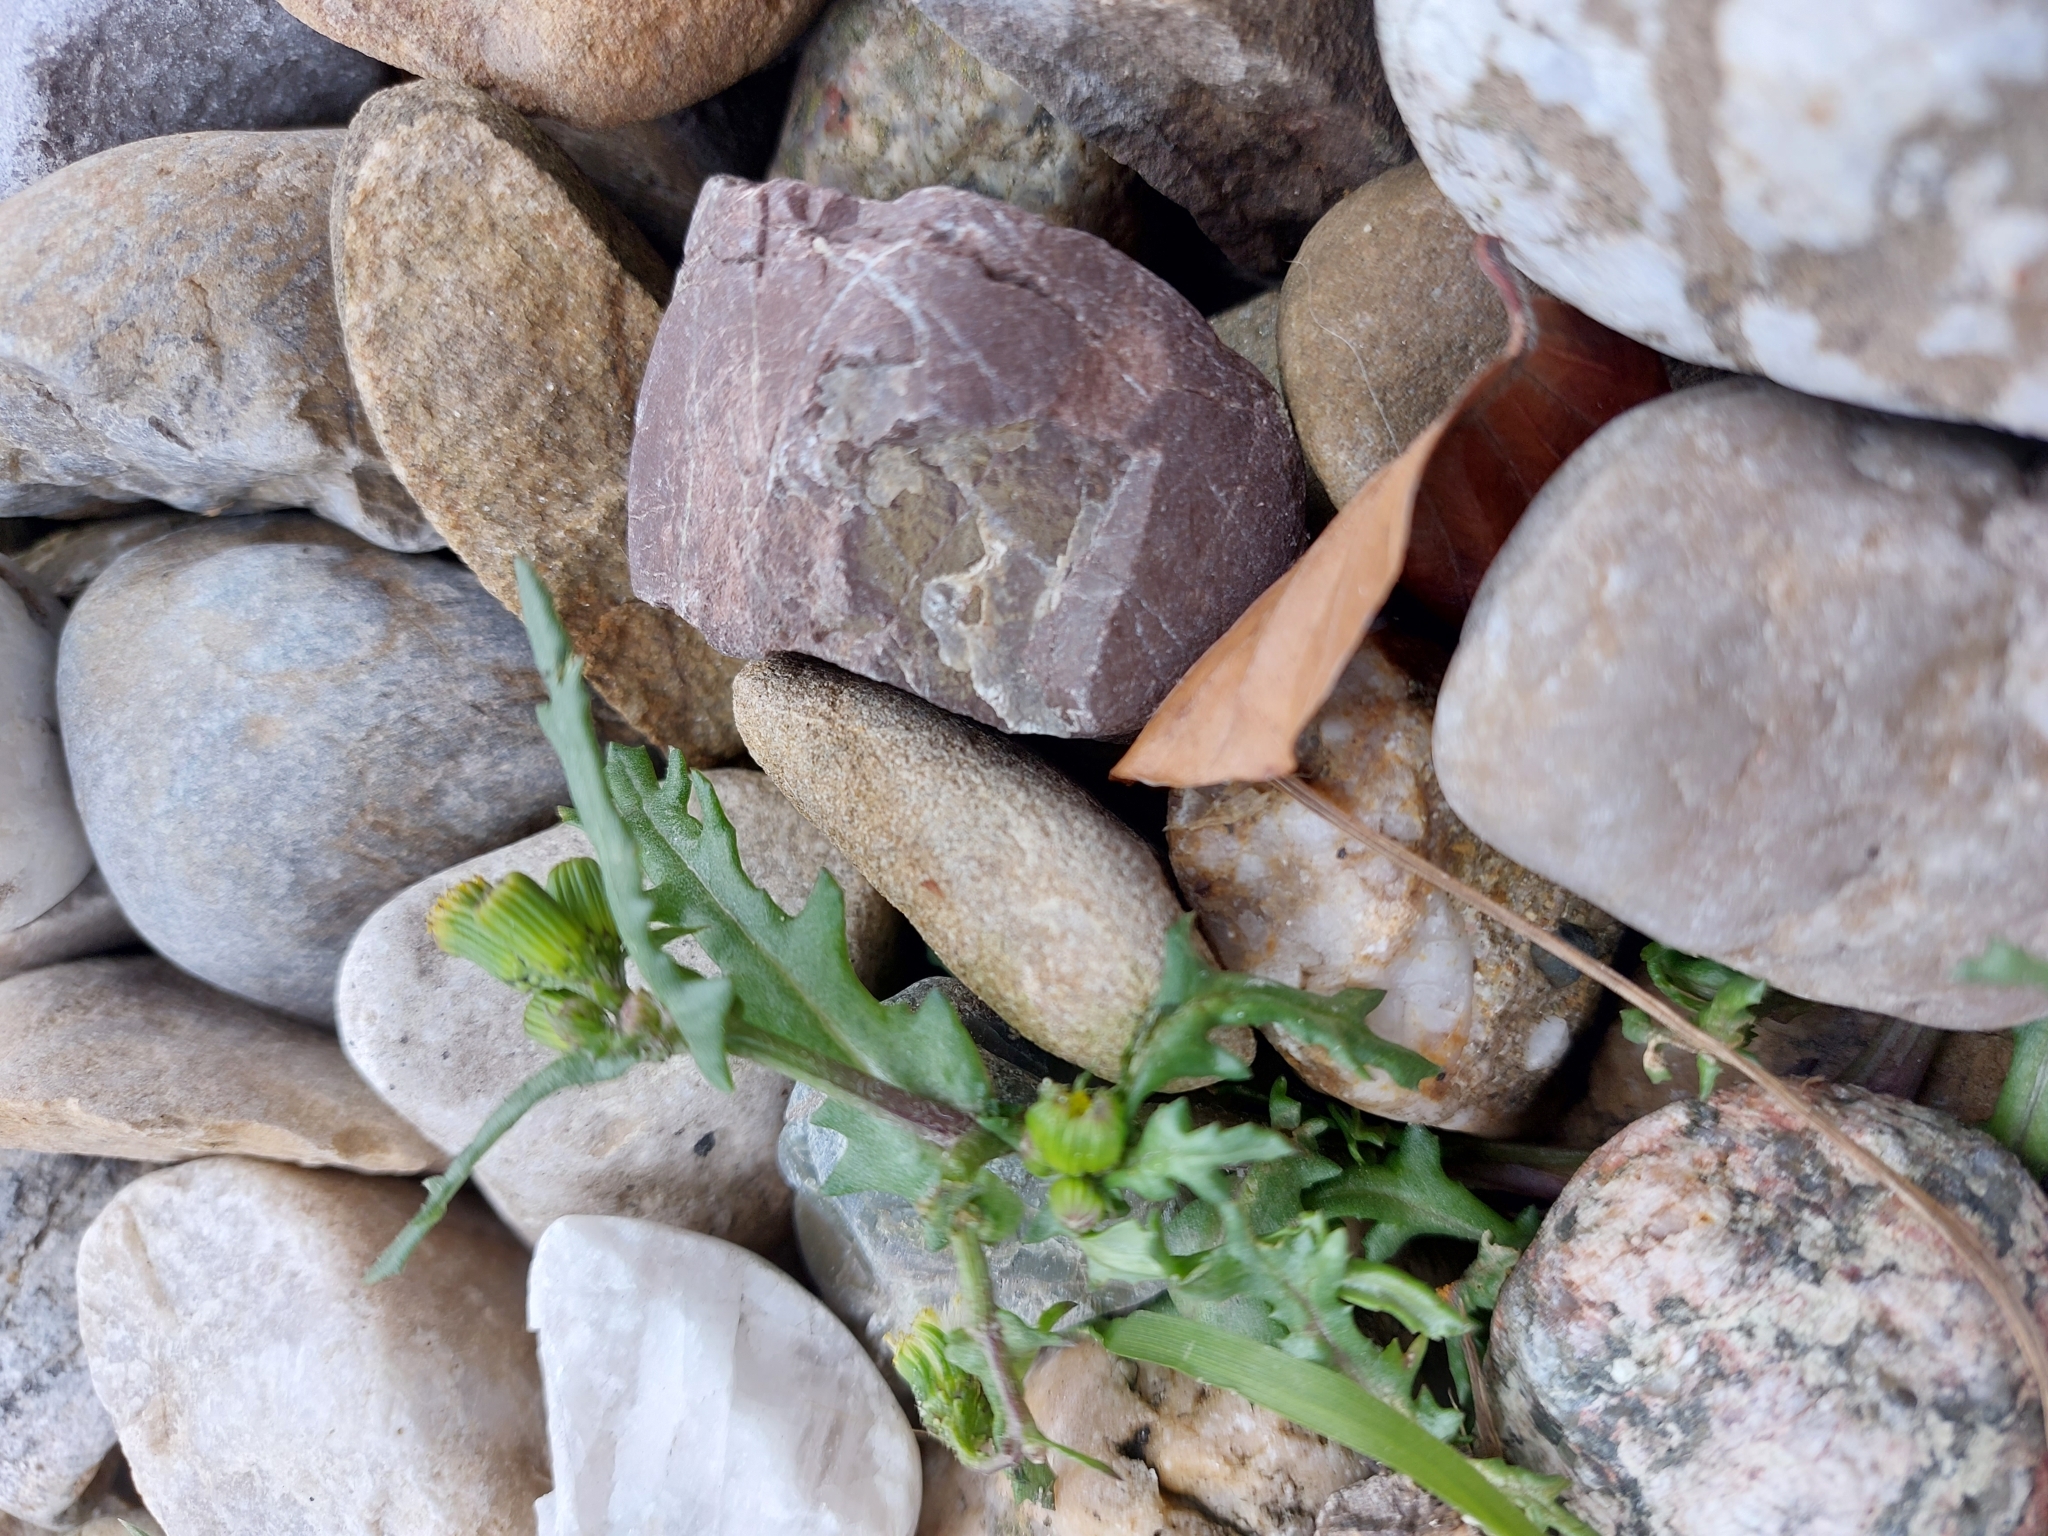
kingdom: Plantae
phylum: Tracheophyta
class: Magnoliopsida
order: Asterales
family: Asteraceae
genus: Senecio
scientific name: Senecio vulgaris
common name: Old-man-in-the-spring
